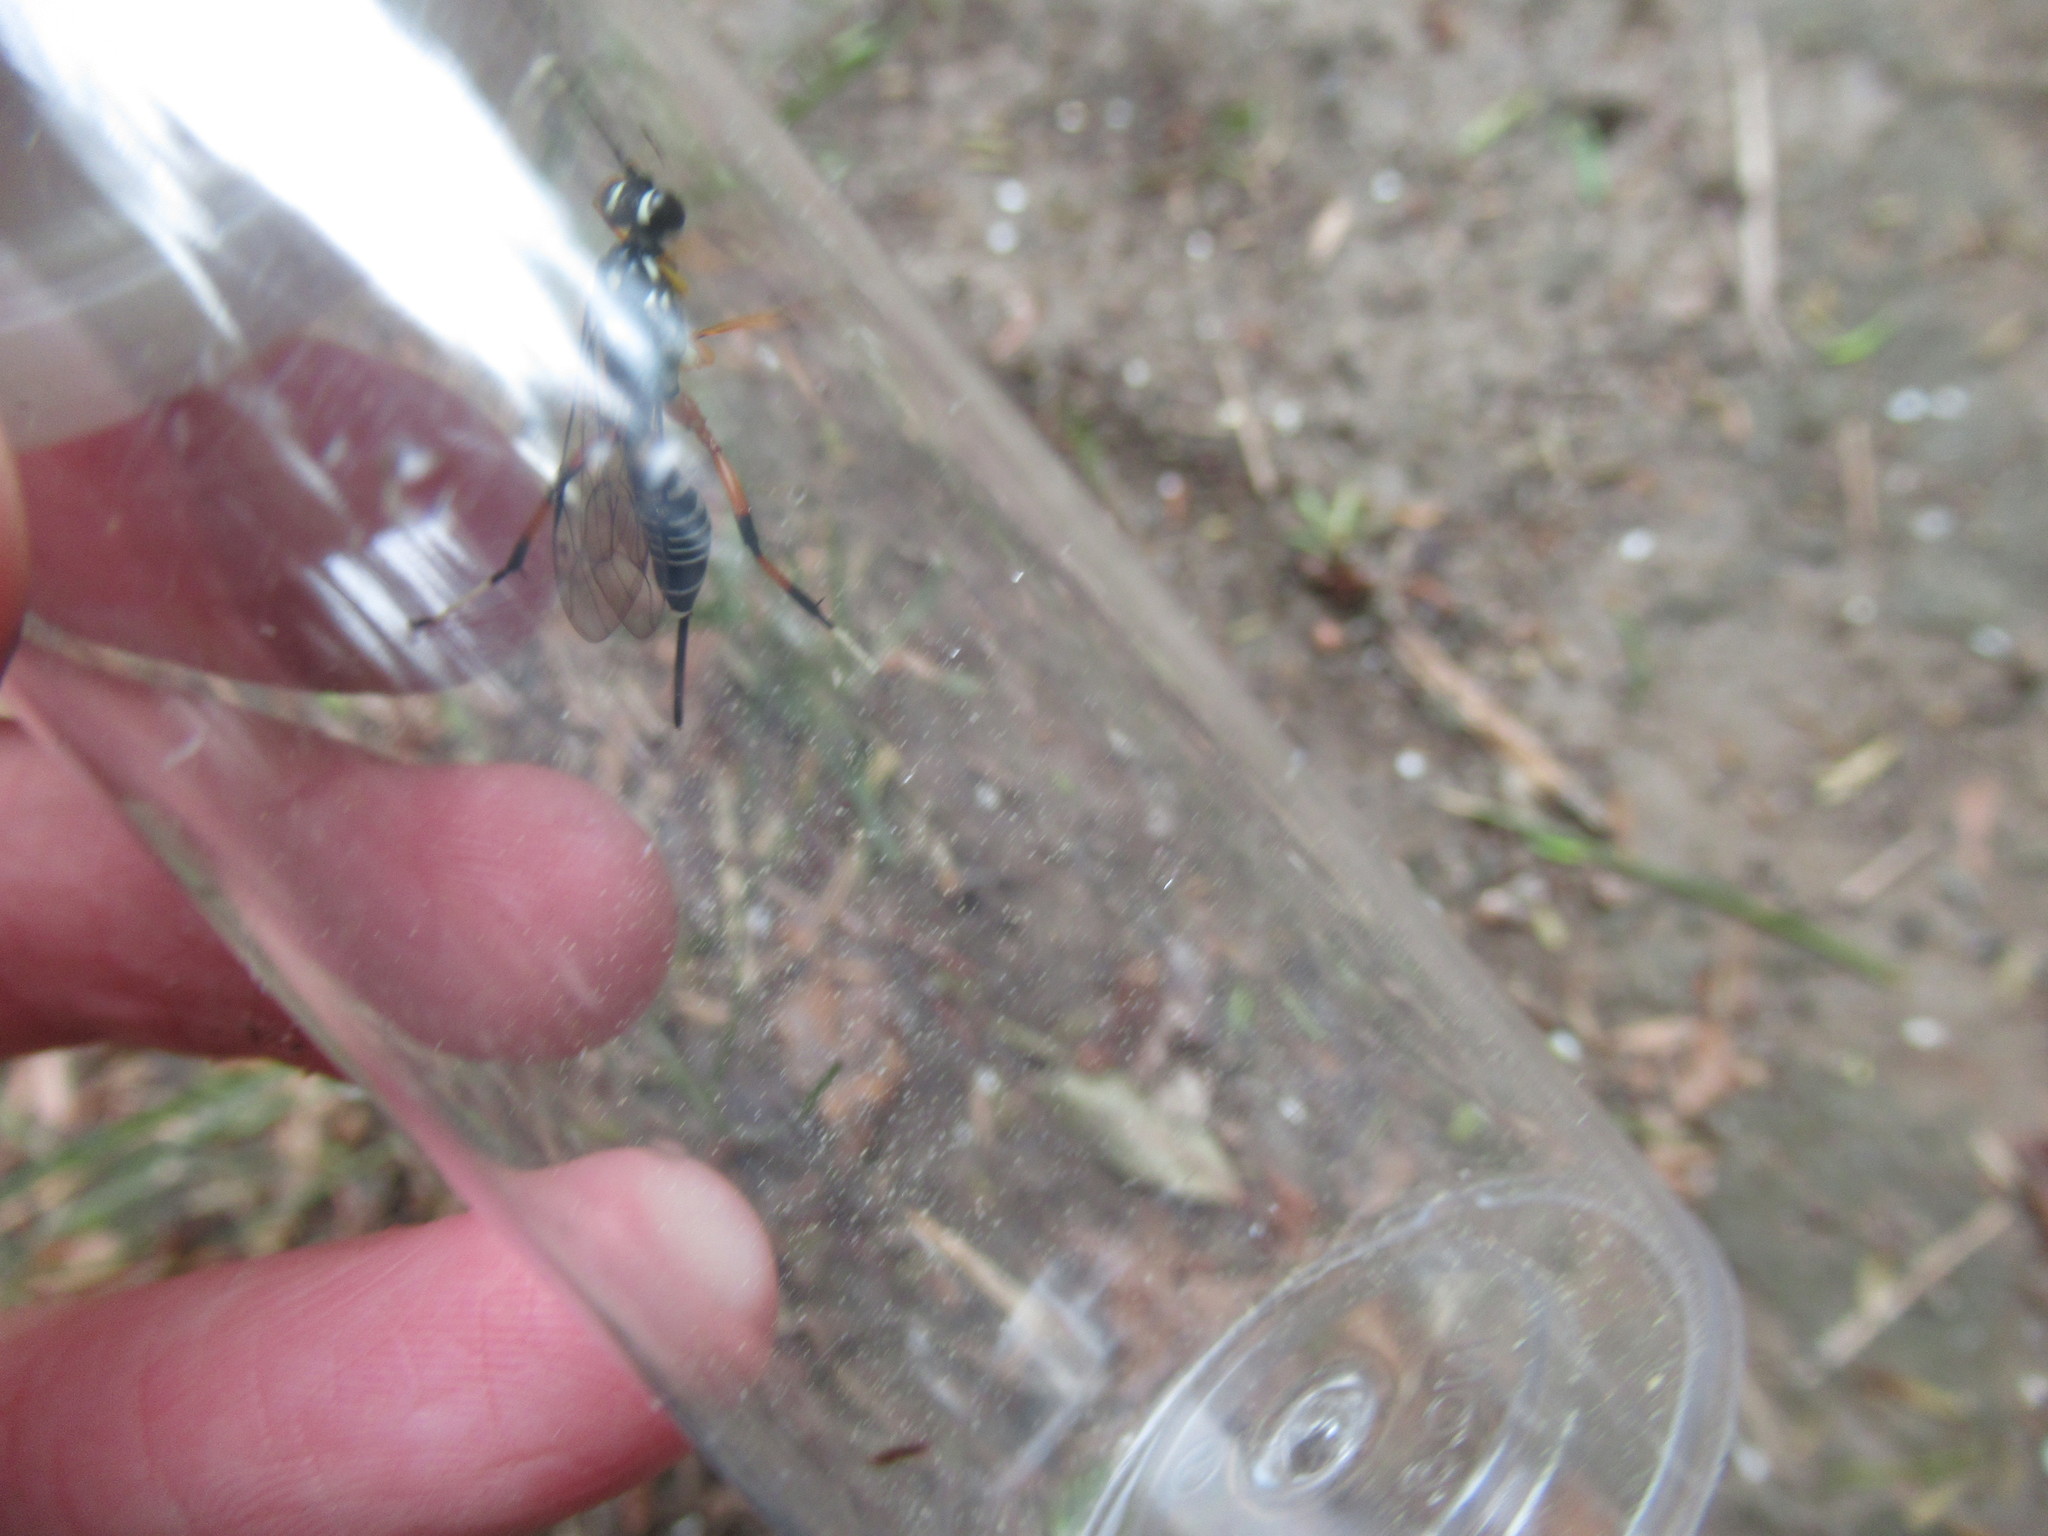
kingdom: Animalia
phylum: Arthropoda
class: Insecta
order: Hymenoptera
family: Ichneumonidae
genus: Xanthocryptus
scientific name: Xanthocryptus novozealandicus
